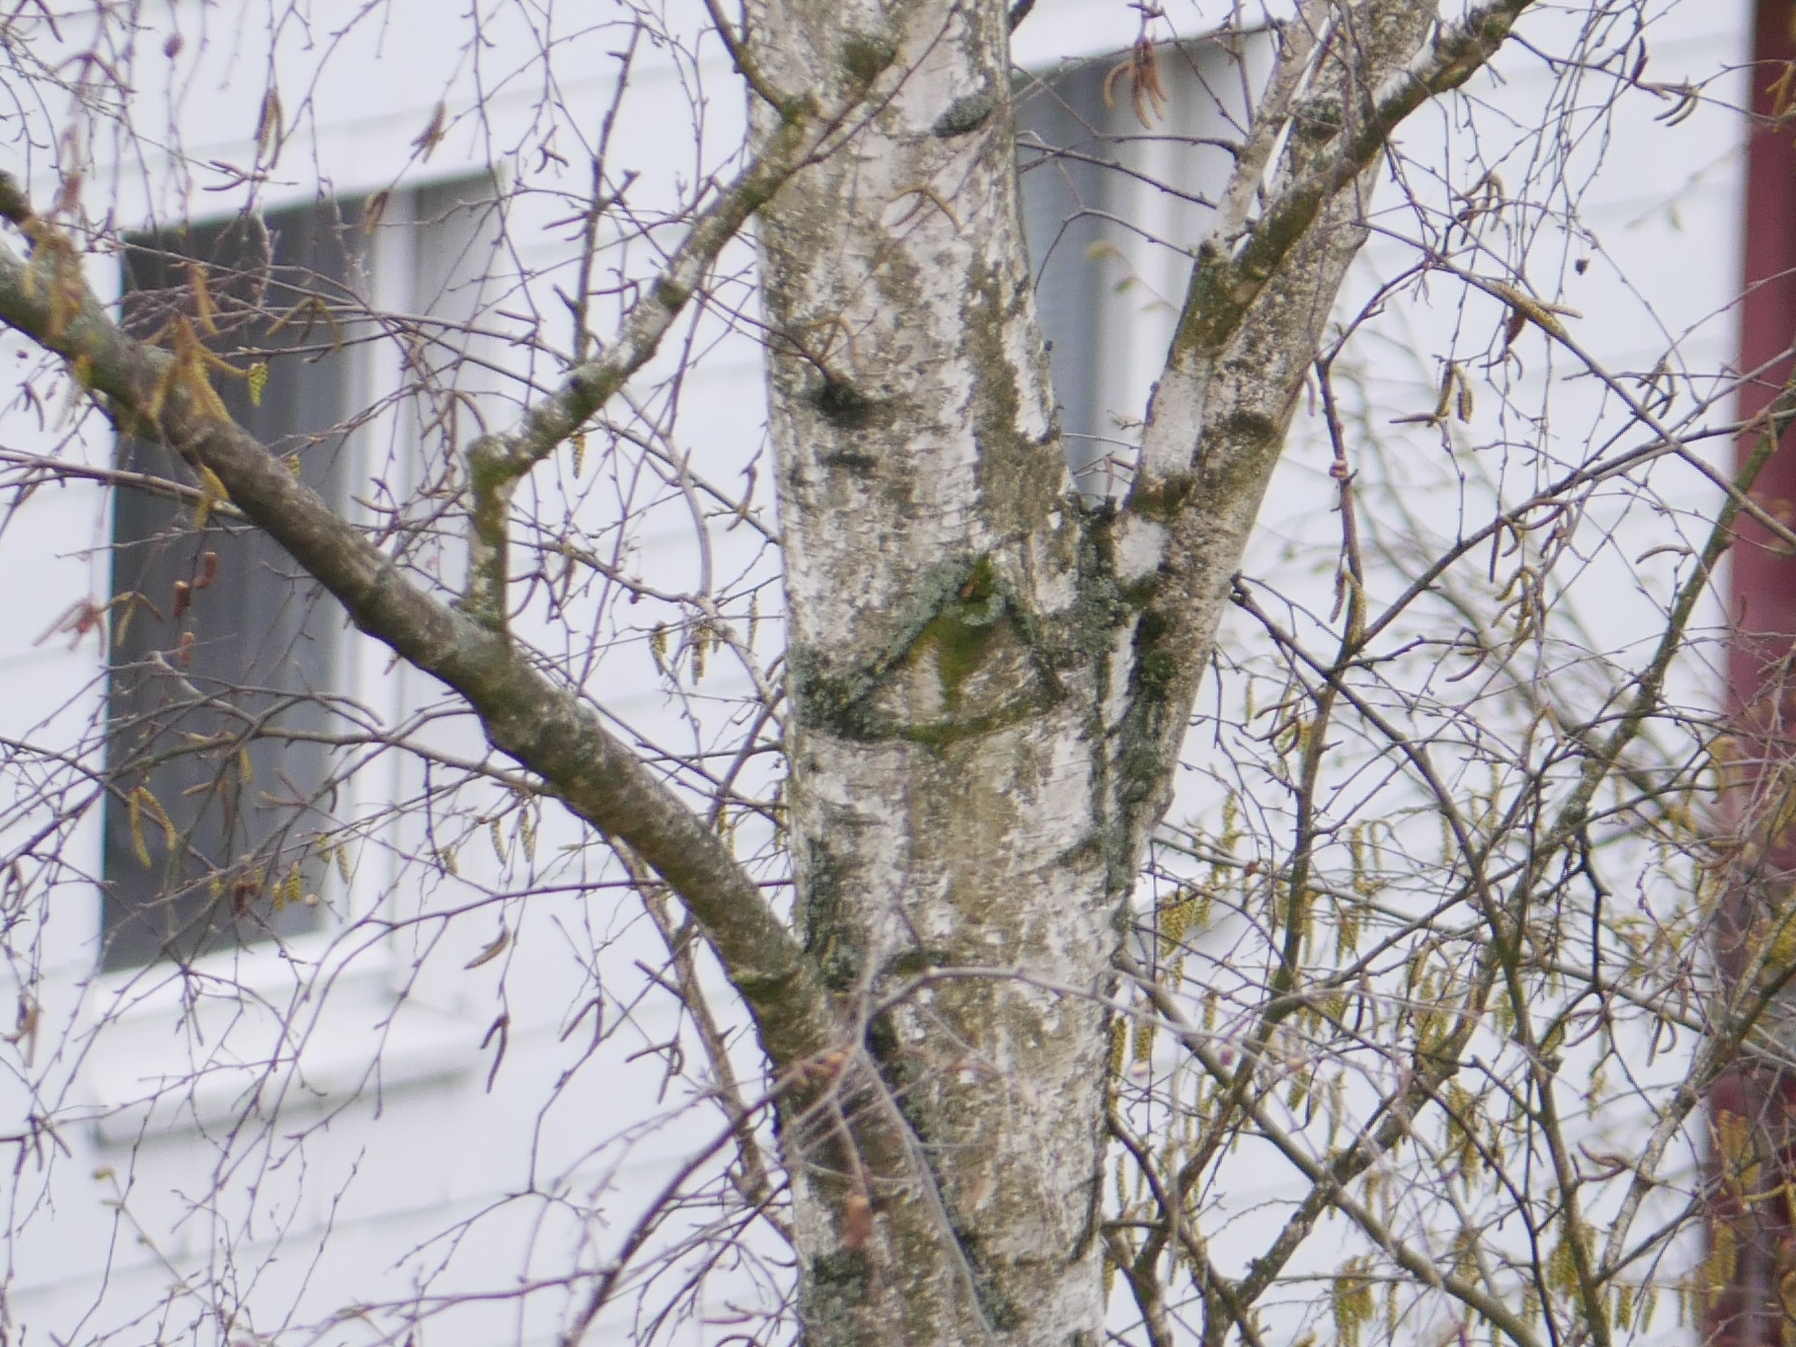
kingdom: Plantae
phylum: Tracheophyta
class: Magnoliopsida
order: Fagales
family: Betulaceae
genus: Betula
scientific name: Betula pendula
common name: Silver birch
